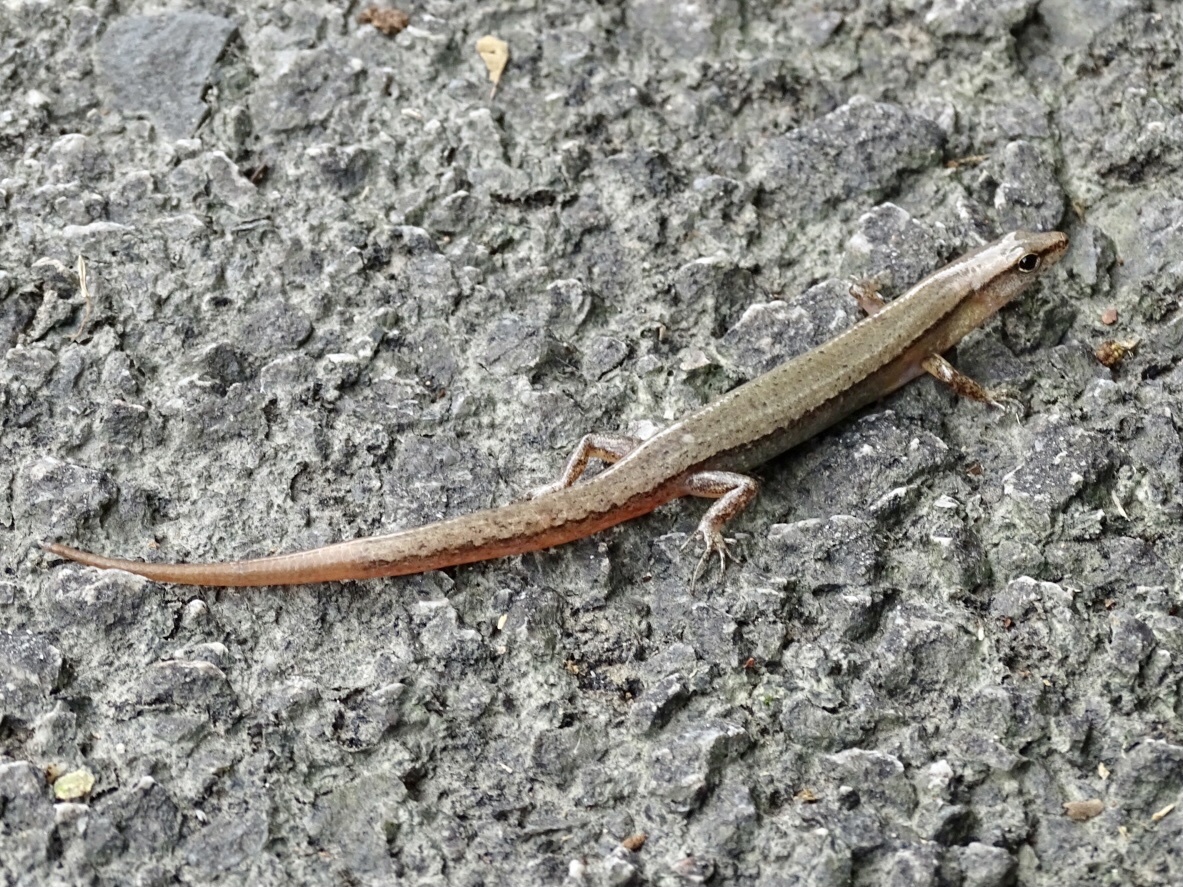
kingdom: Animalia
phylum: Chordata
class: Squamata
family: Scincidae
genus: Scincella
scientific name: Scincella modesta
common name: Modest ground skink
